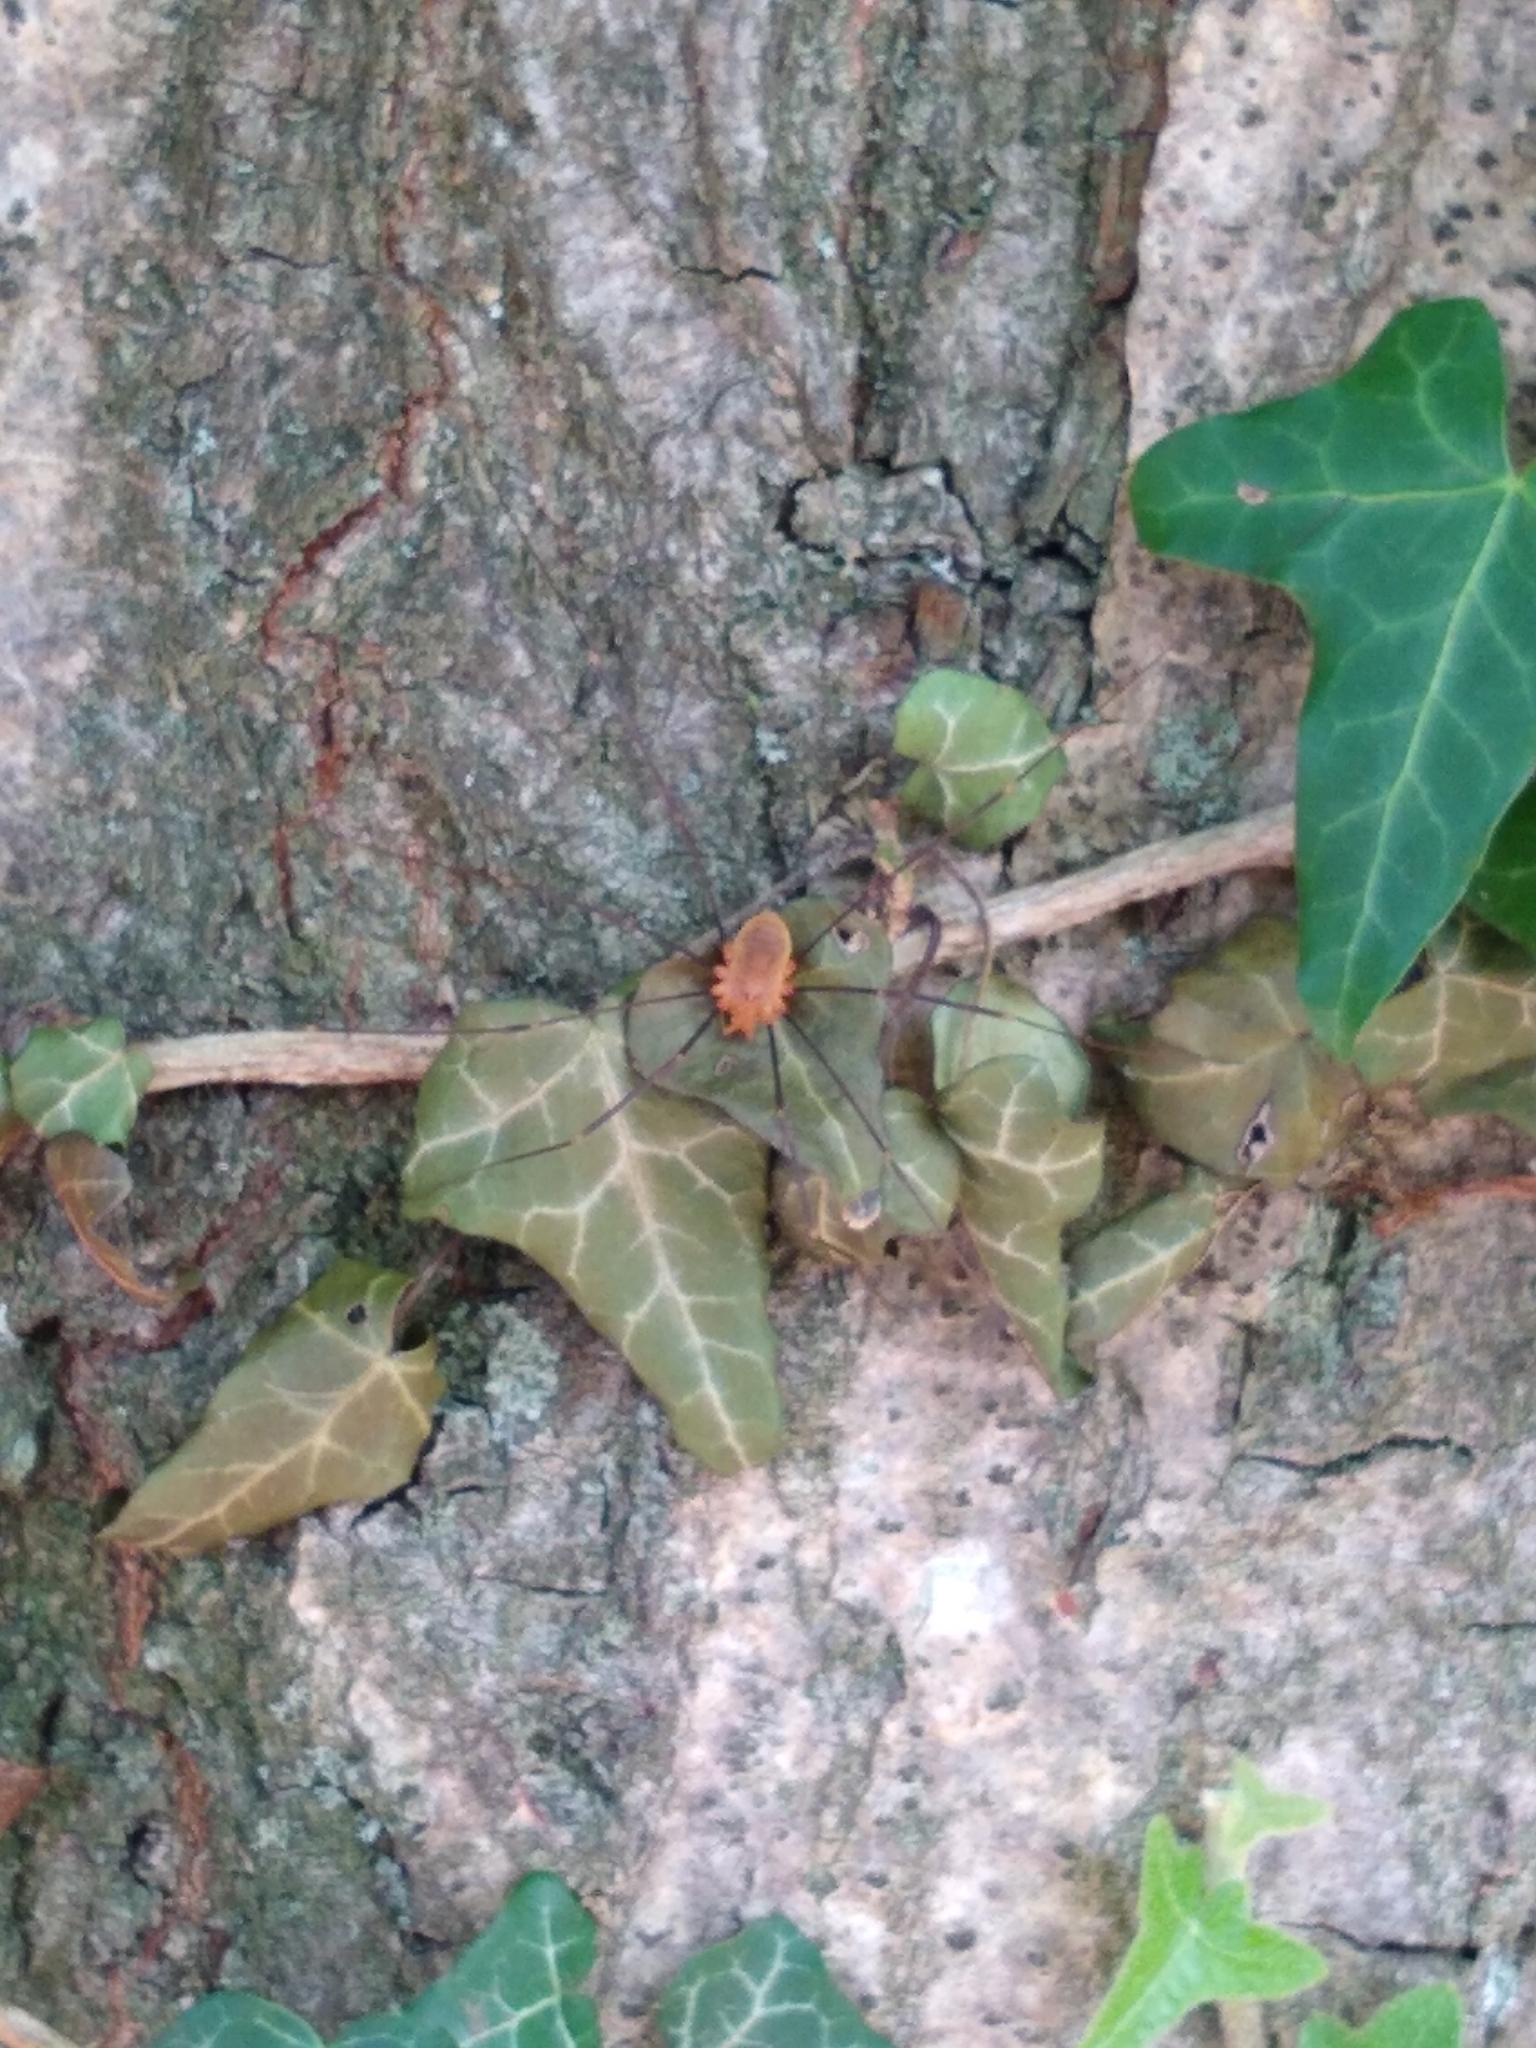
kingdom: Animalia
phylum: Arthropoda
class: Arachnida
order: Opiliones
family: Phalangiidae
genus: Opilio
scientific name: Opilio canestrinii
